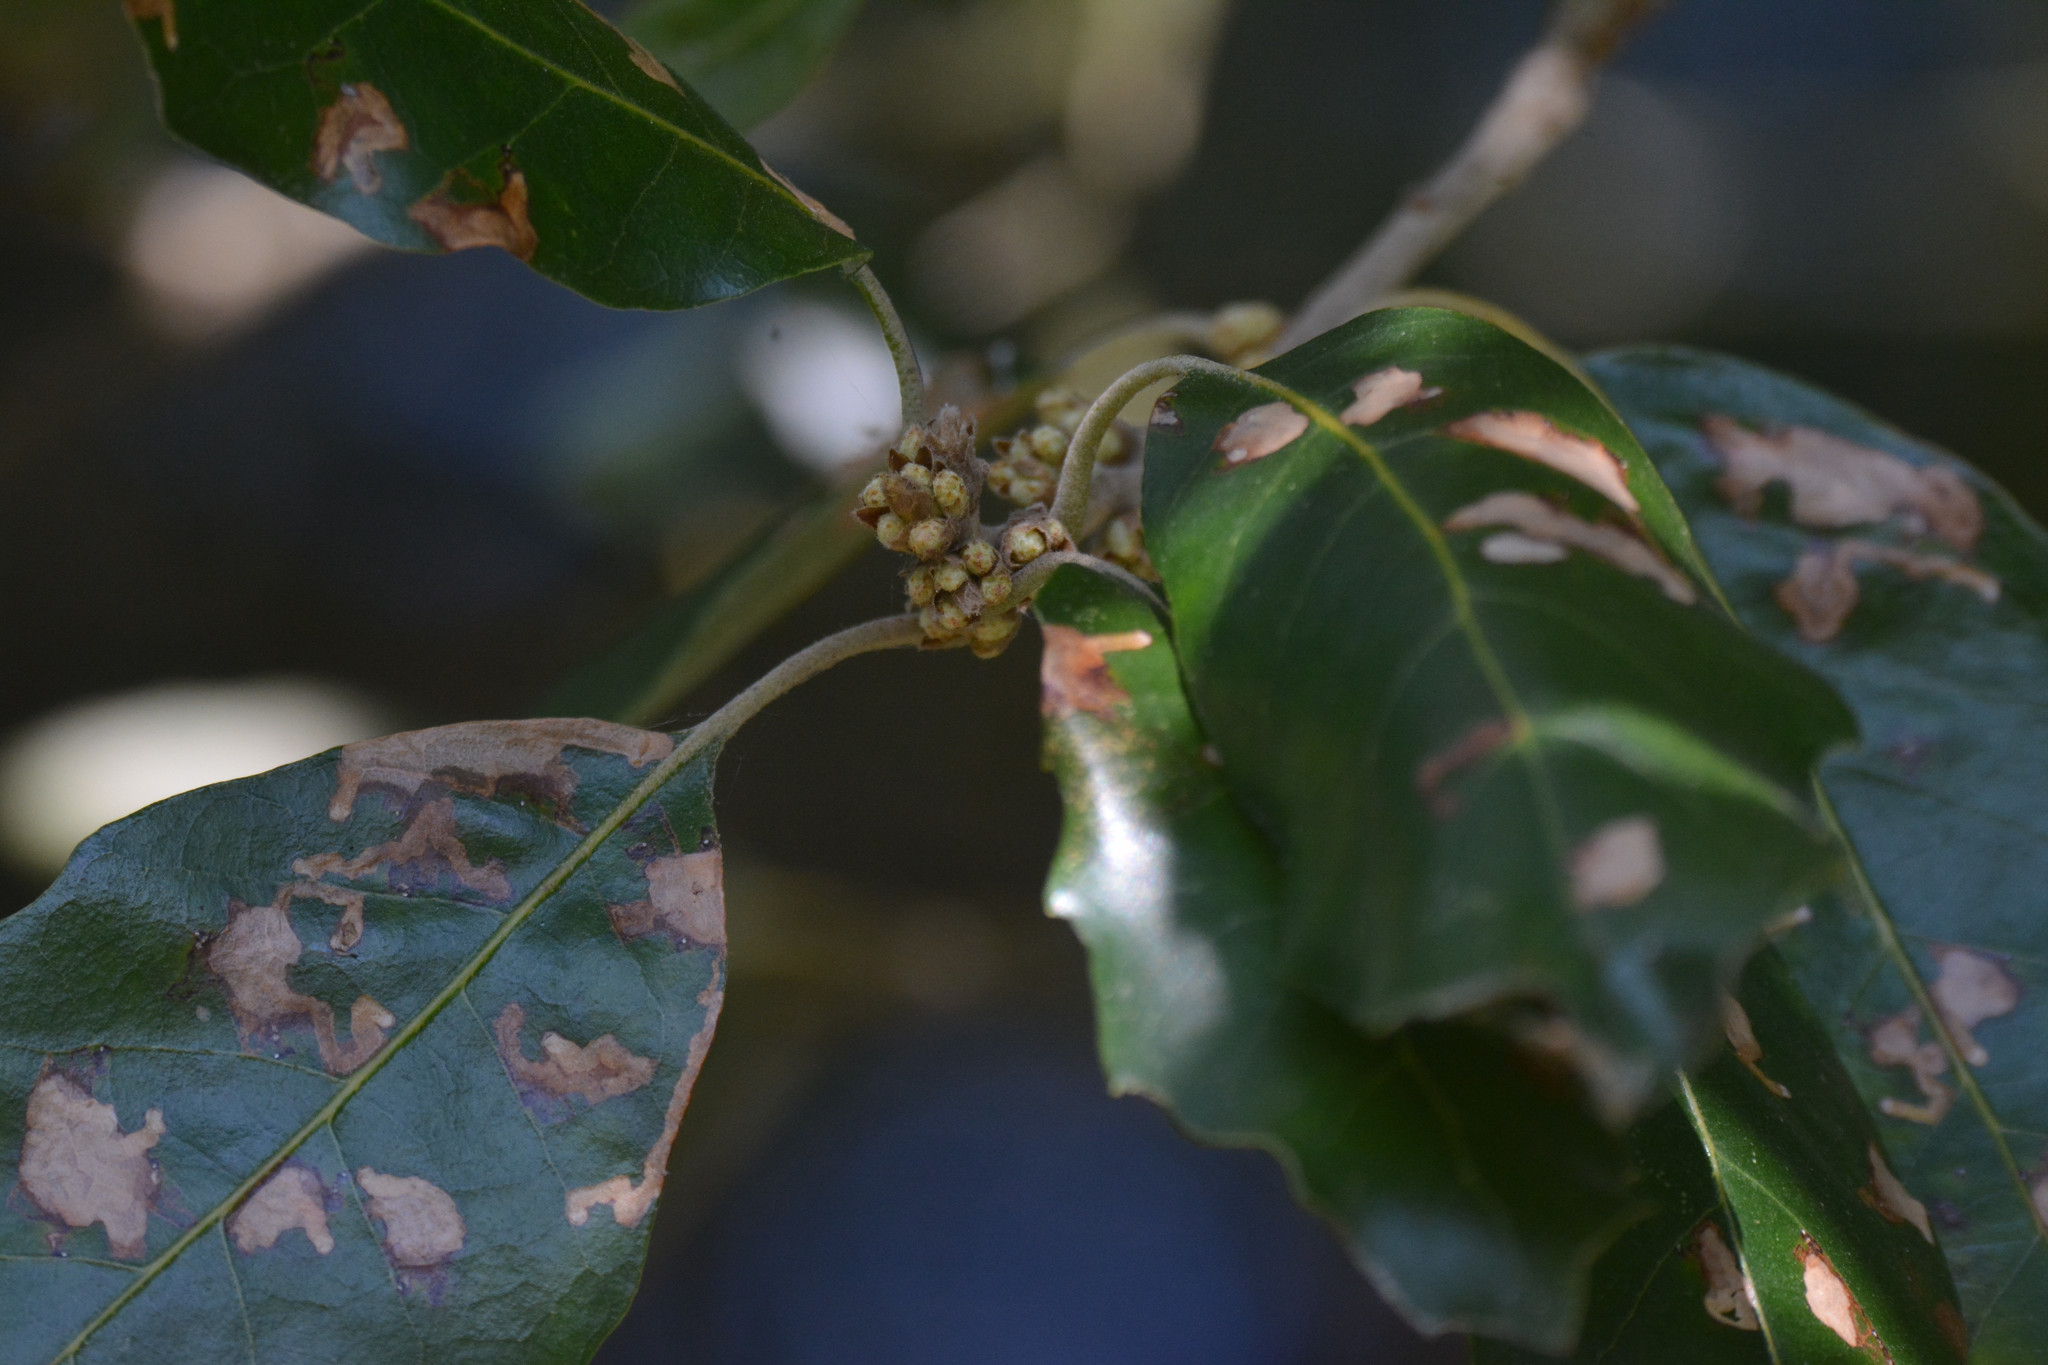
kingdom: Plantae
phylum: Tracheophyta
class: Magnoliopsida
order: Fagales
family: Fagaceae
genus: Quercus
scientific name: Quercus ilex
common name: Evergreen oak
